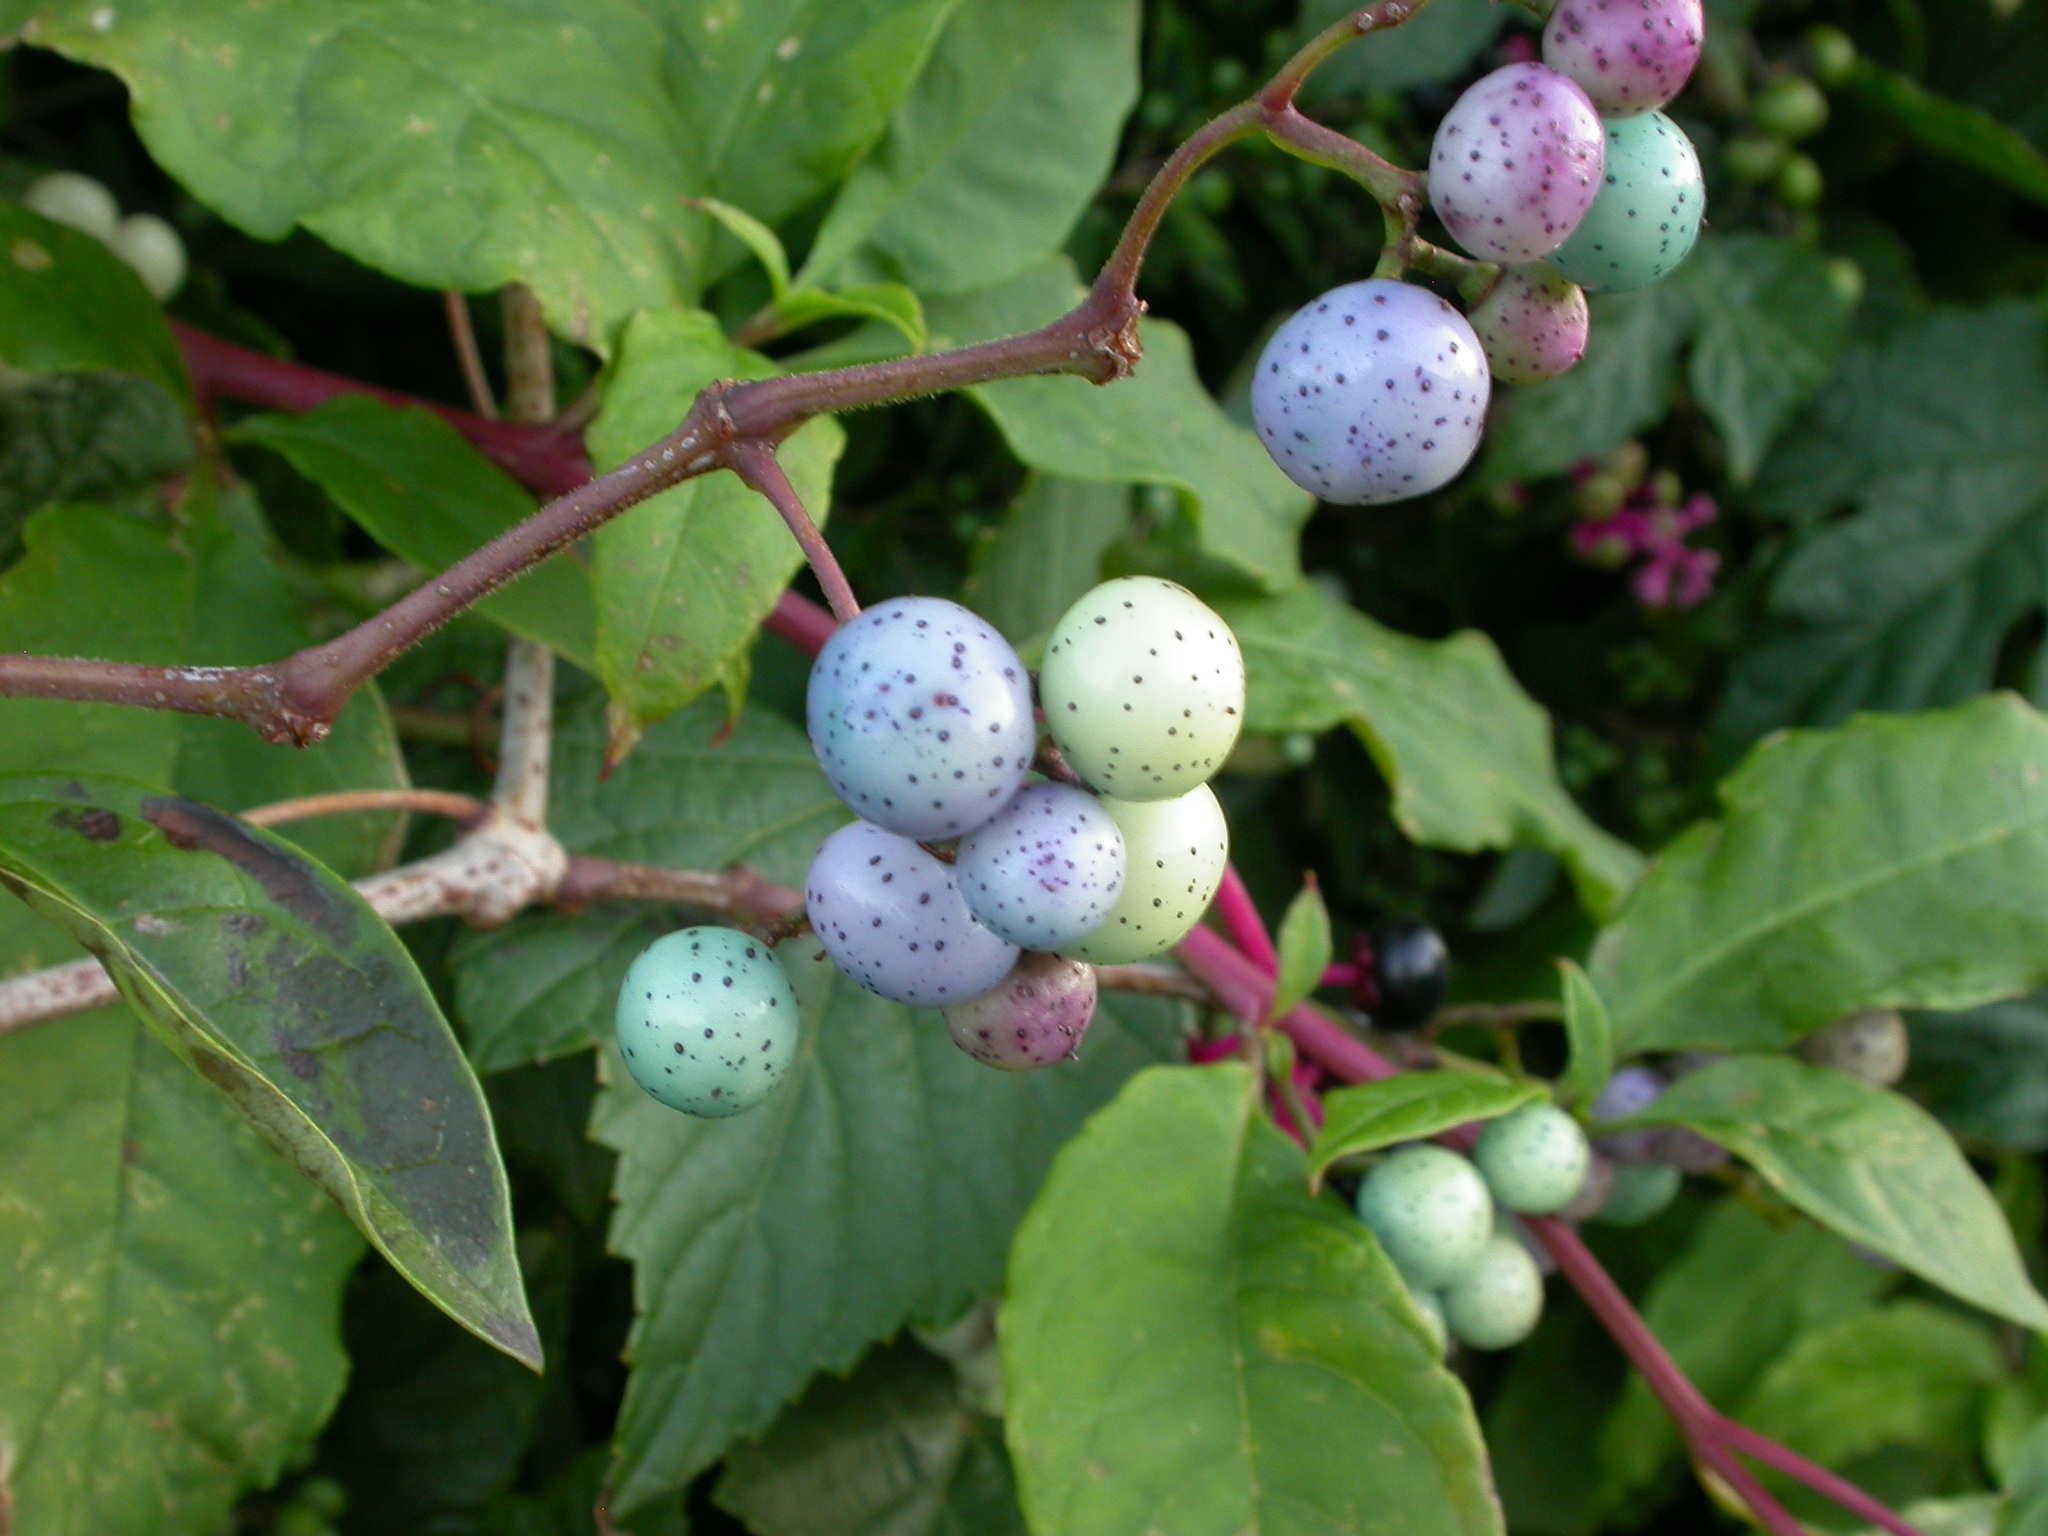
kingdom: Plantae
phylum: Tracheophyta
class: Magnoliopsida
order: Vitales
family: Vitaceae
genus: Ampelopsis
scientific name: Ampelopsis glandulosa
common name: Amur peppervine
